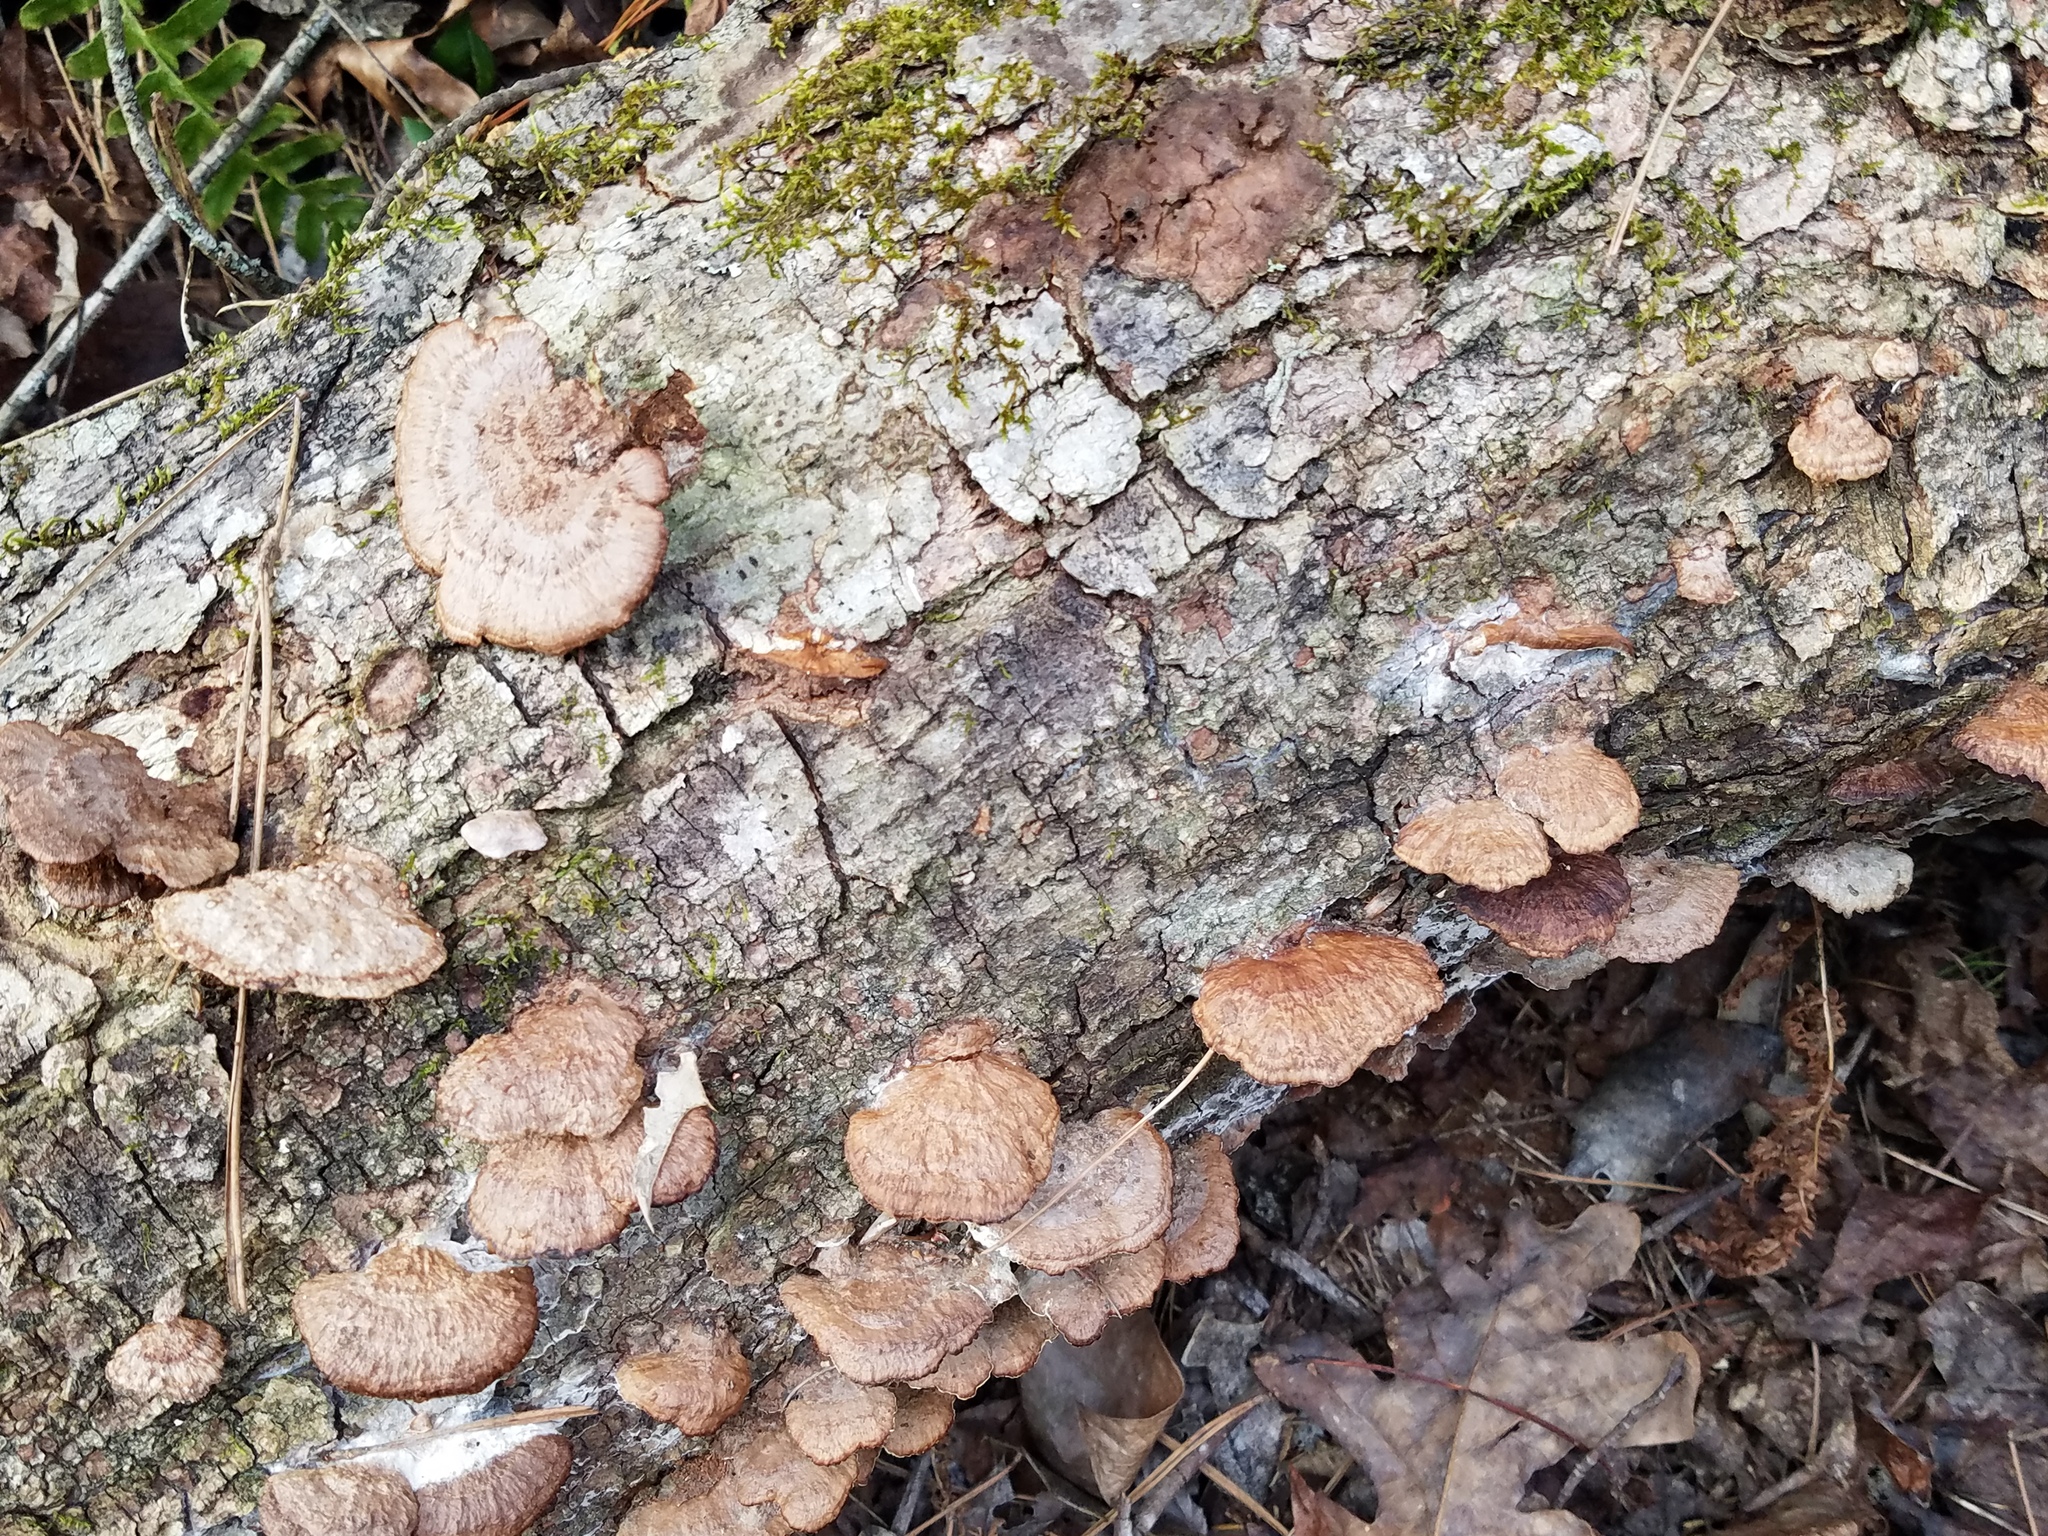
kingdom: Fungi
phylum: Basidiomycota
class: Agaricomycetes
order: Hymenochaetales
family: Hymenochaetaceae
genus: Phellinus
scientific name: Phellinus gilvus
